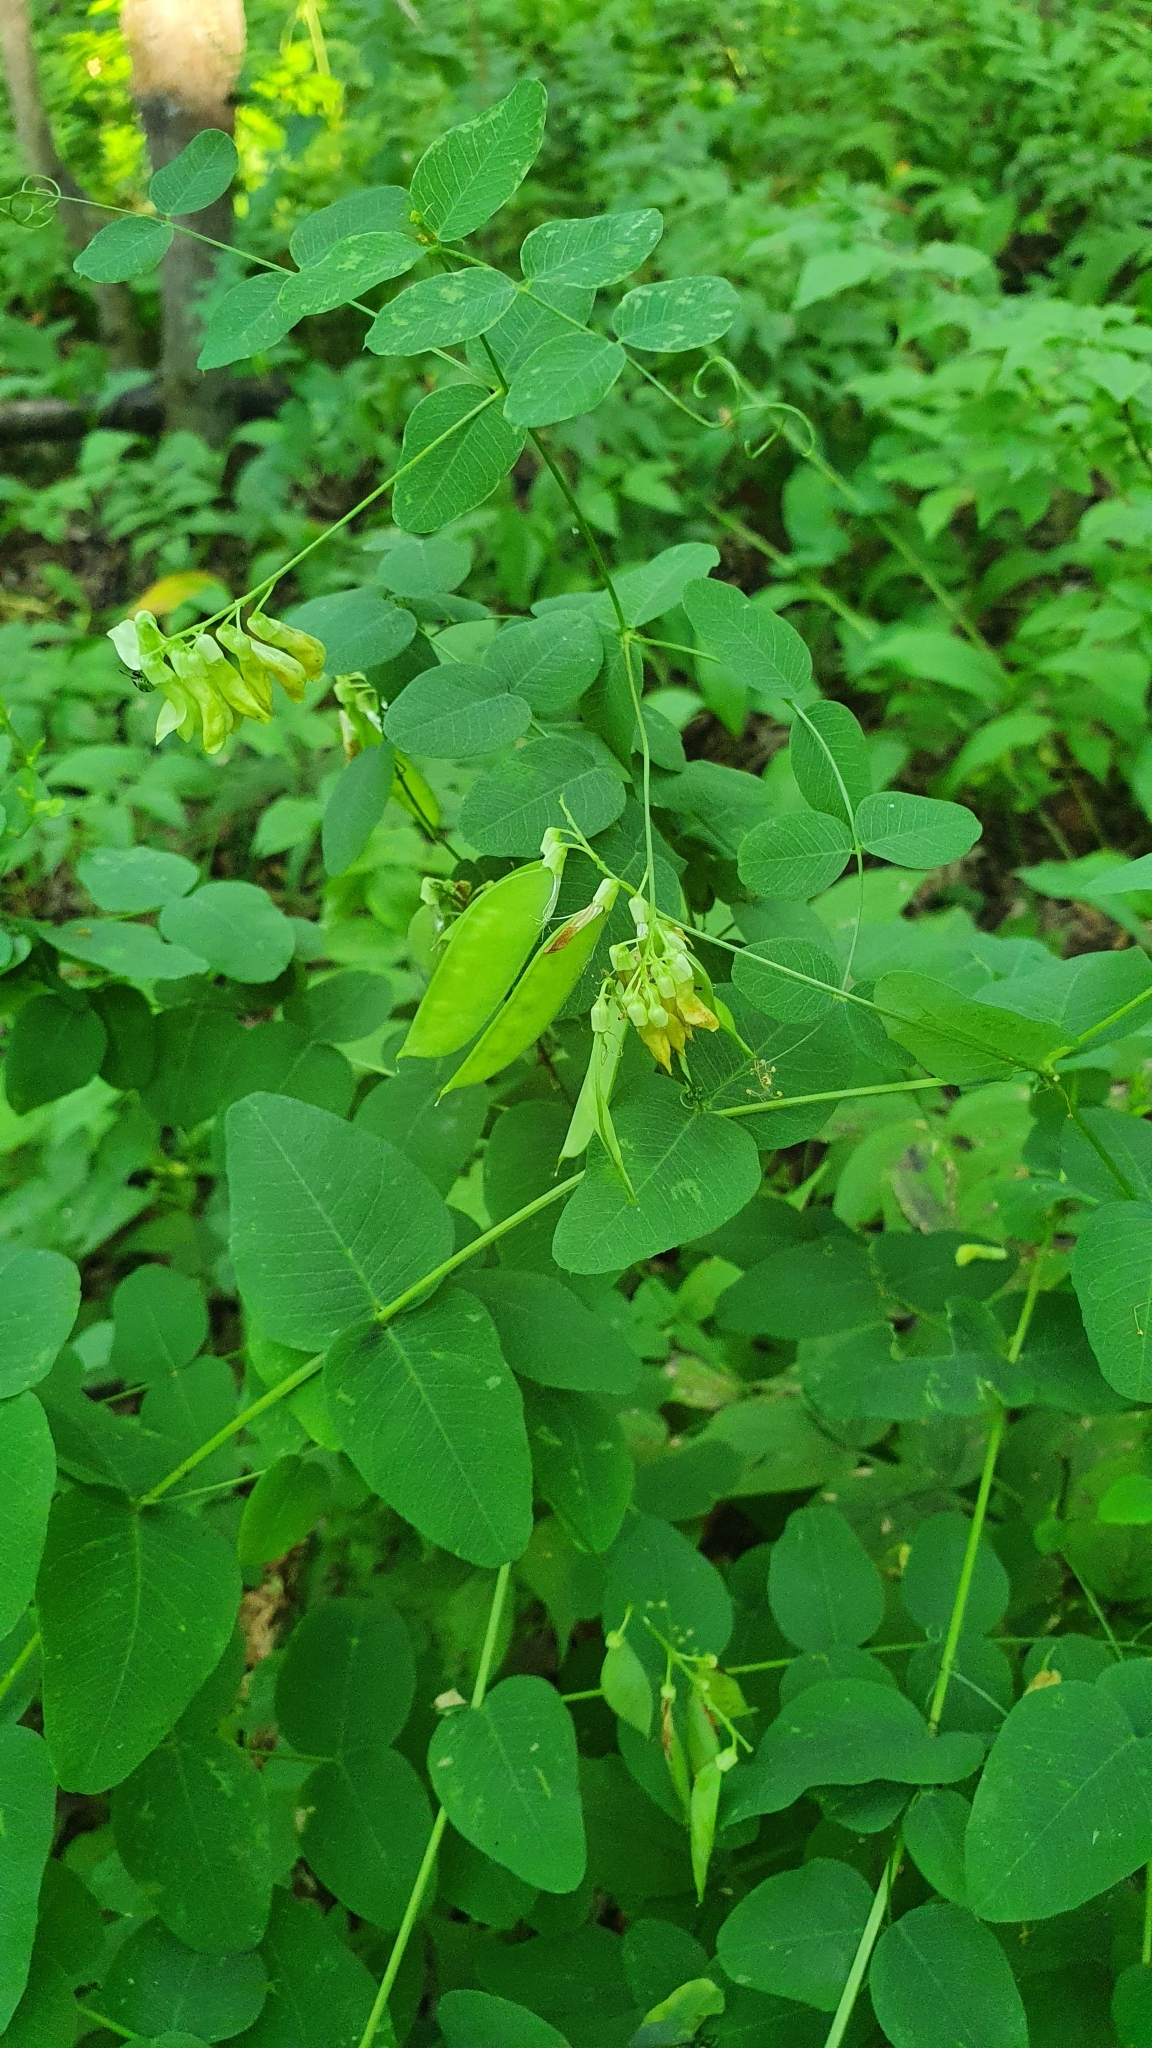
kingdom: Plantae
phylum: Tracheophyta
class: Magnoliopsida
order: Fabales
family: Fabaceae
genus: Vicia
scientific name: Vicia pisiformis
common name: Pale-flower vetch
